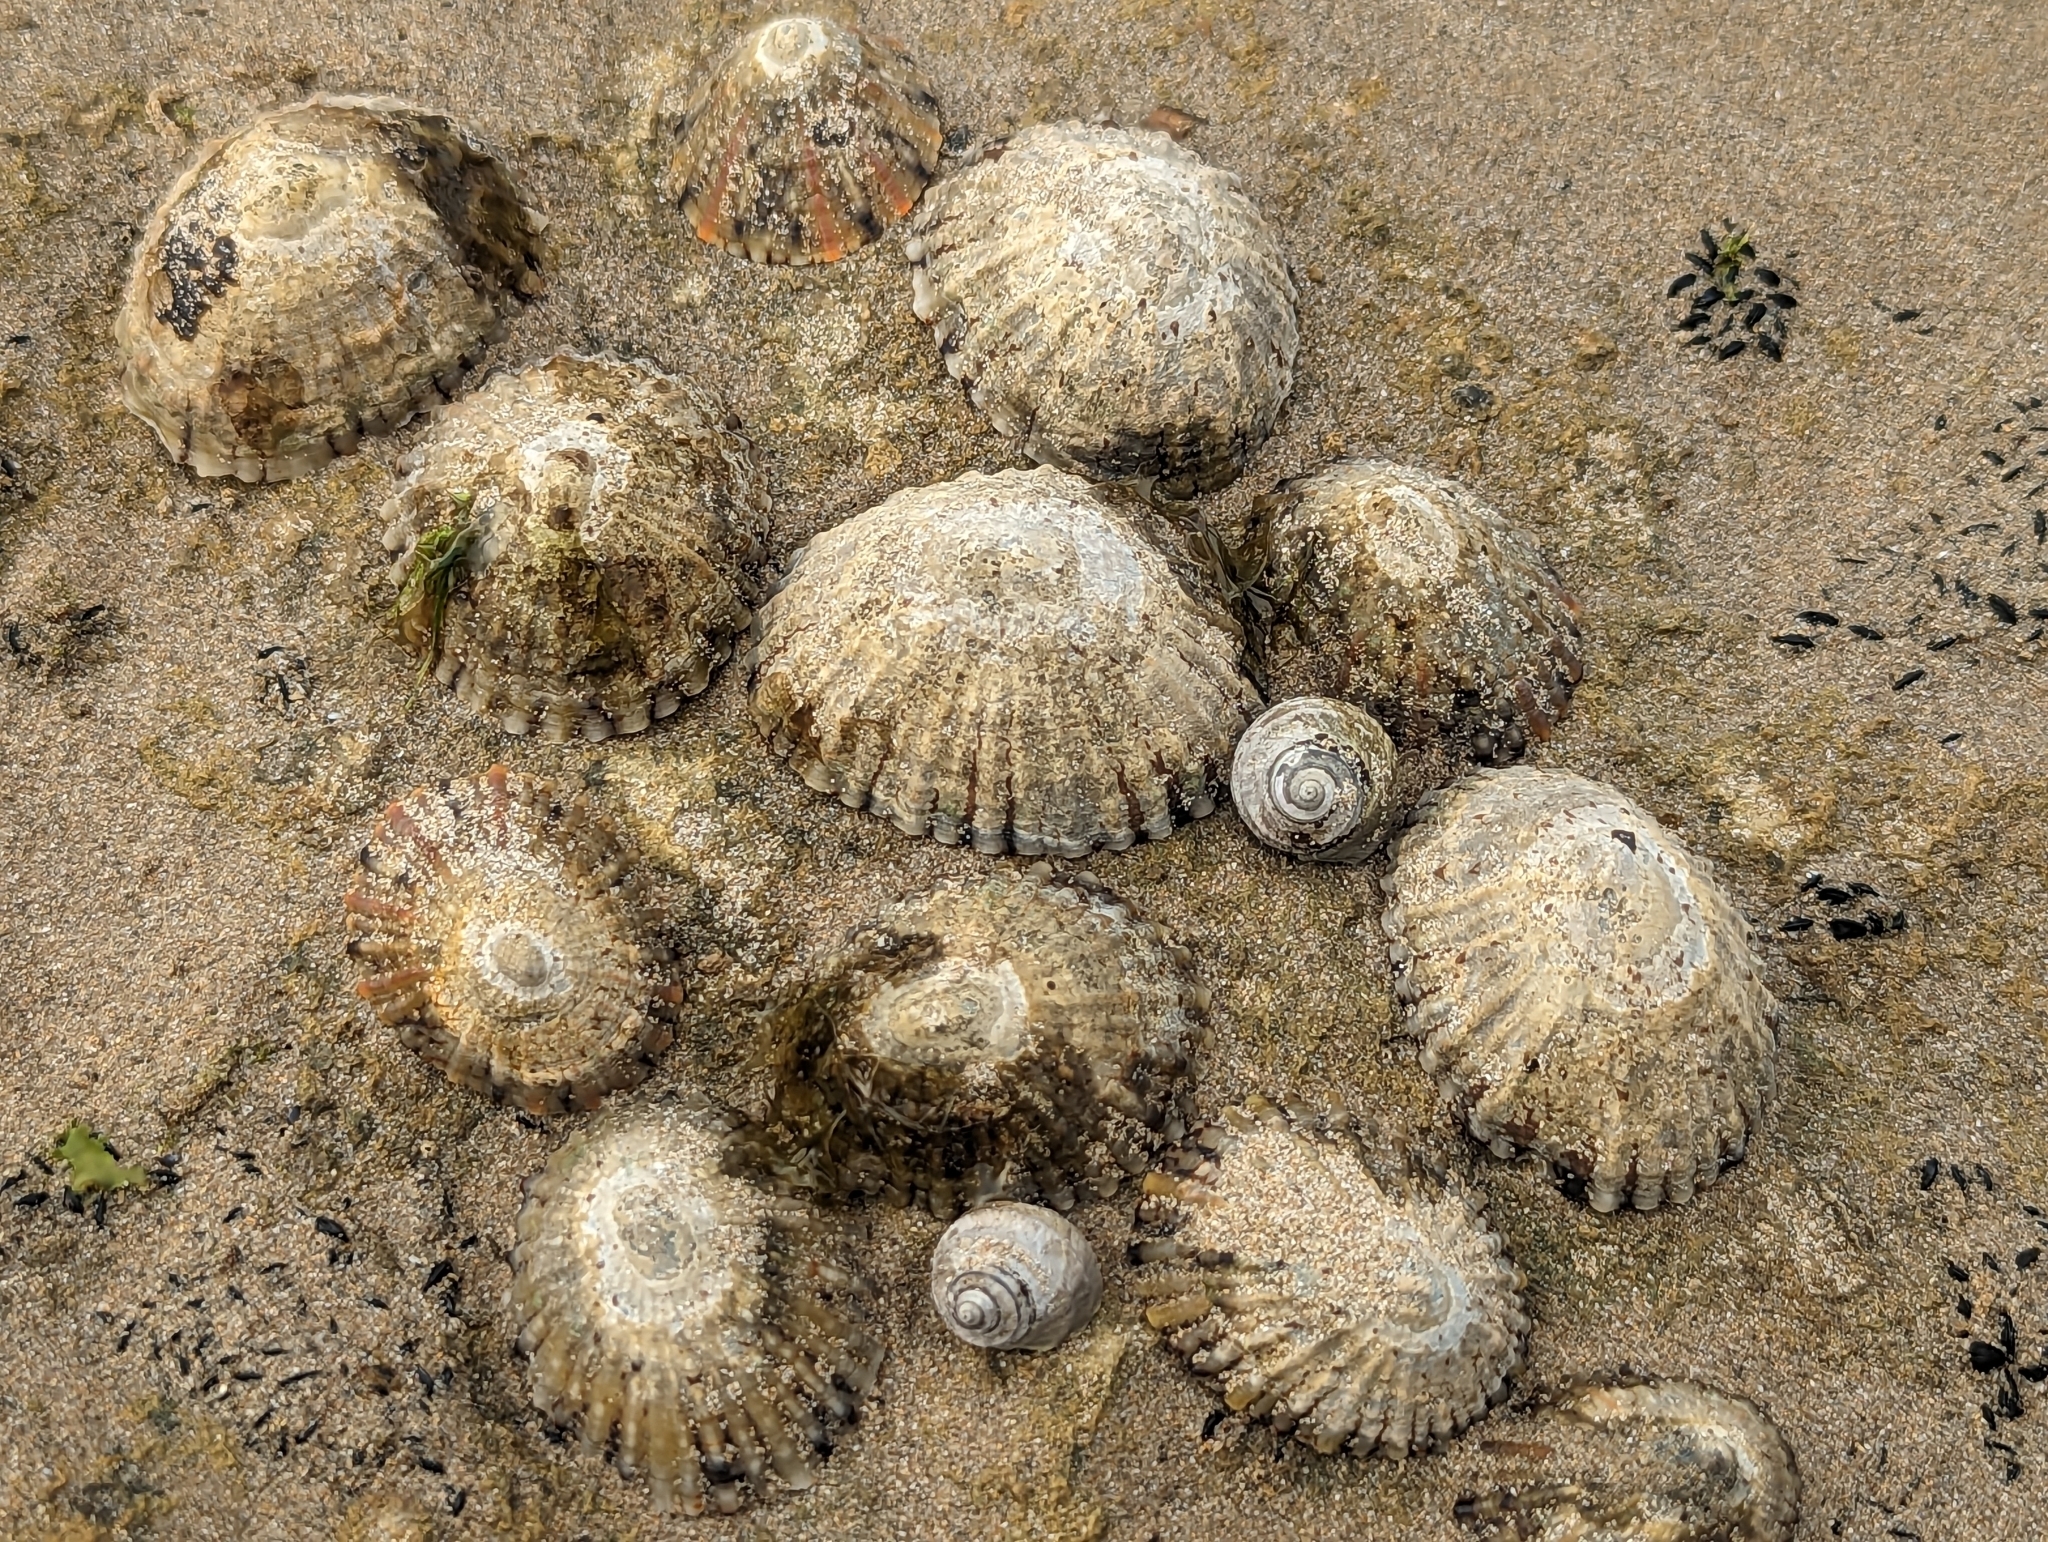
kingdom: Animalia
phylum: Mollusca
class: Gastropoda
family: Nacellidae
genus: Cellana
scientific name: Cellana tramoserica
